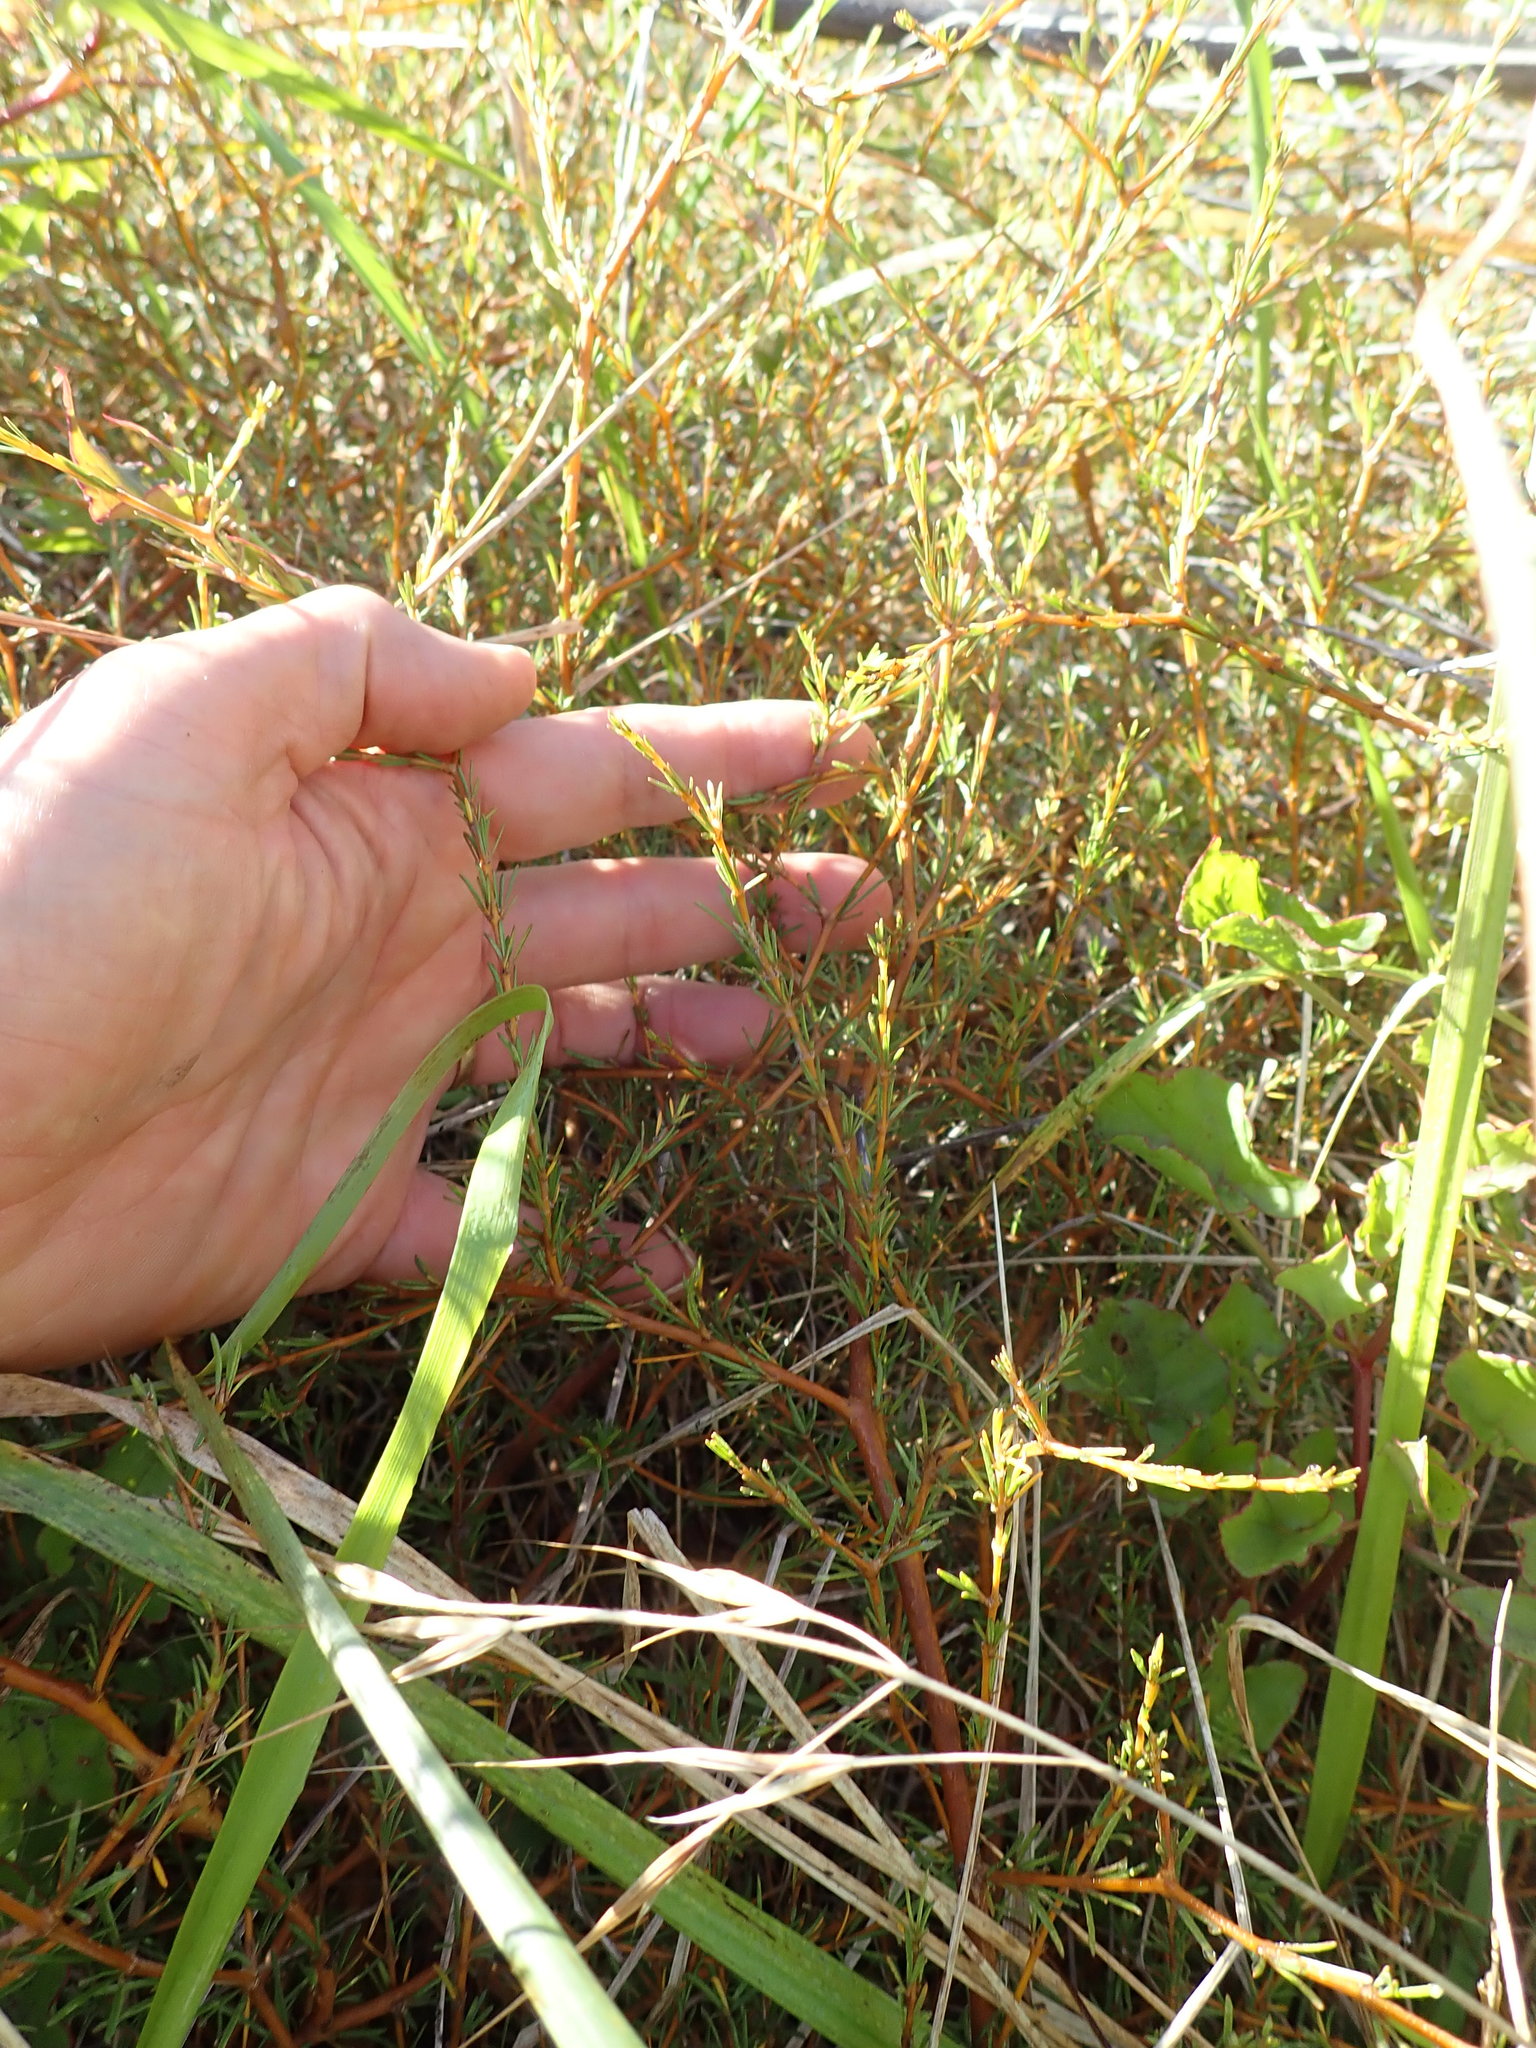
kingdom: Plantae
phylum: Tracheophyta
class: Magnoliopsida
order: Gentianales
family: Rubiaceae
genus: Coprosma
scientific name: Coprosma acerosa
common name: Sand coprosma
